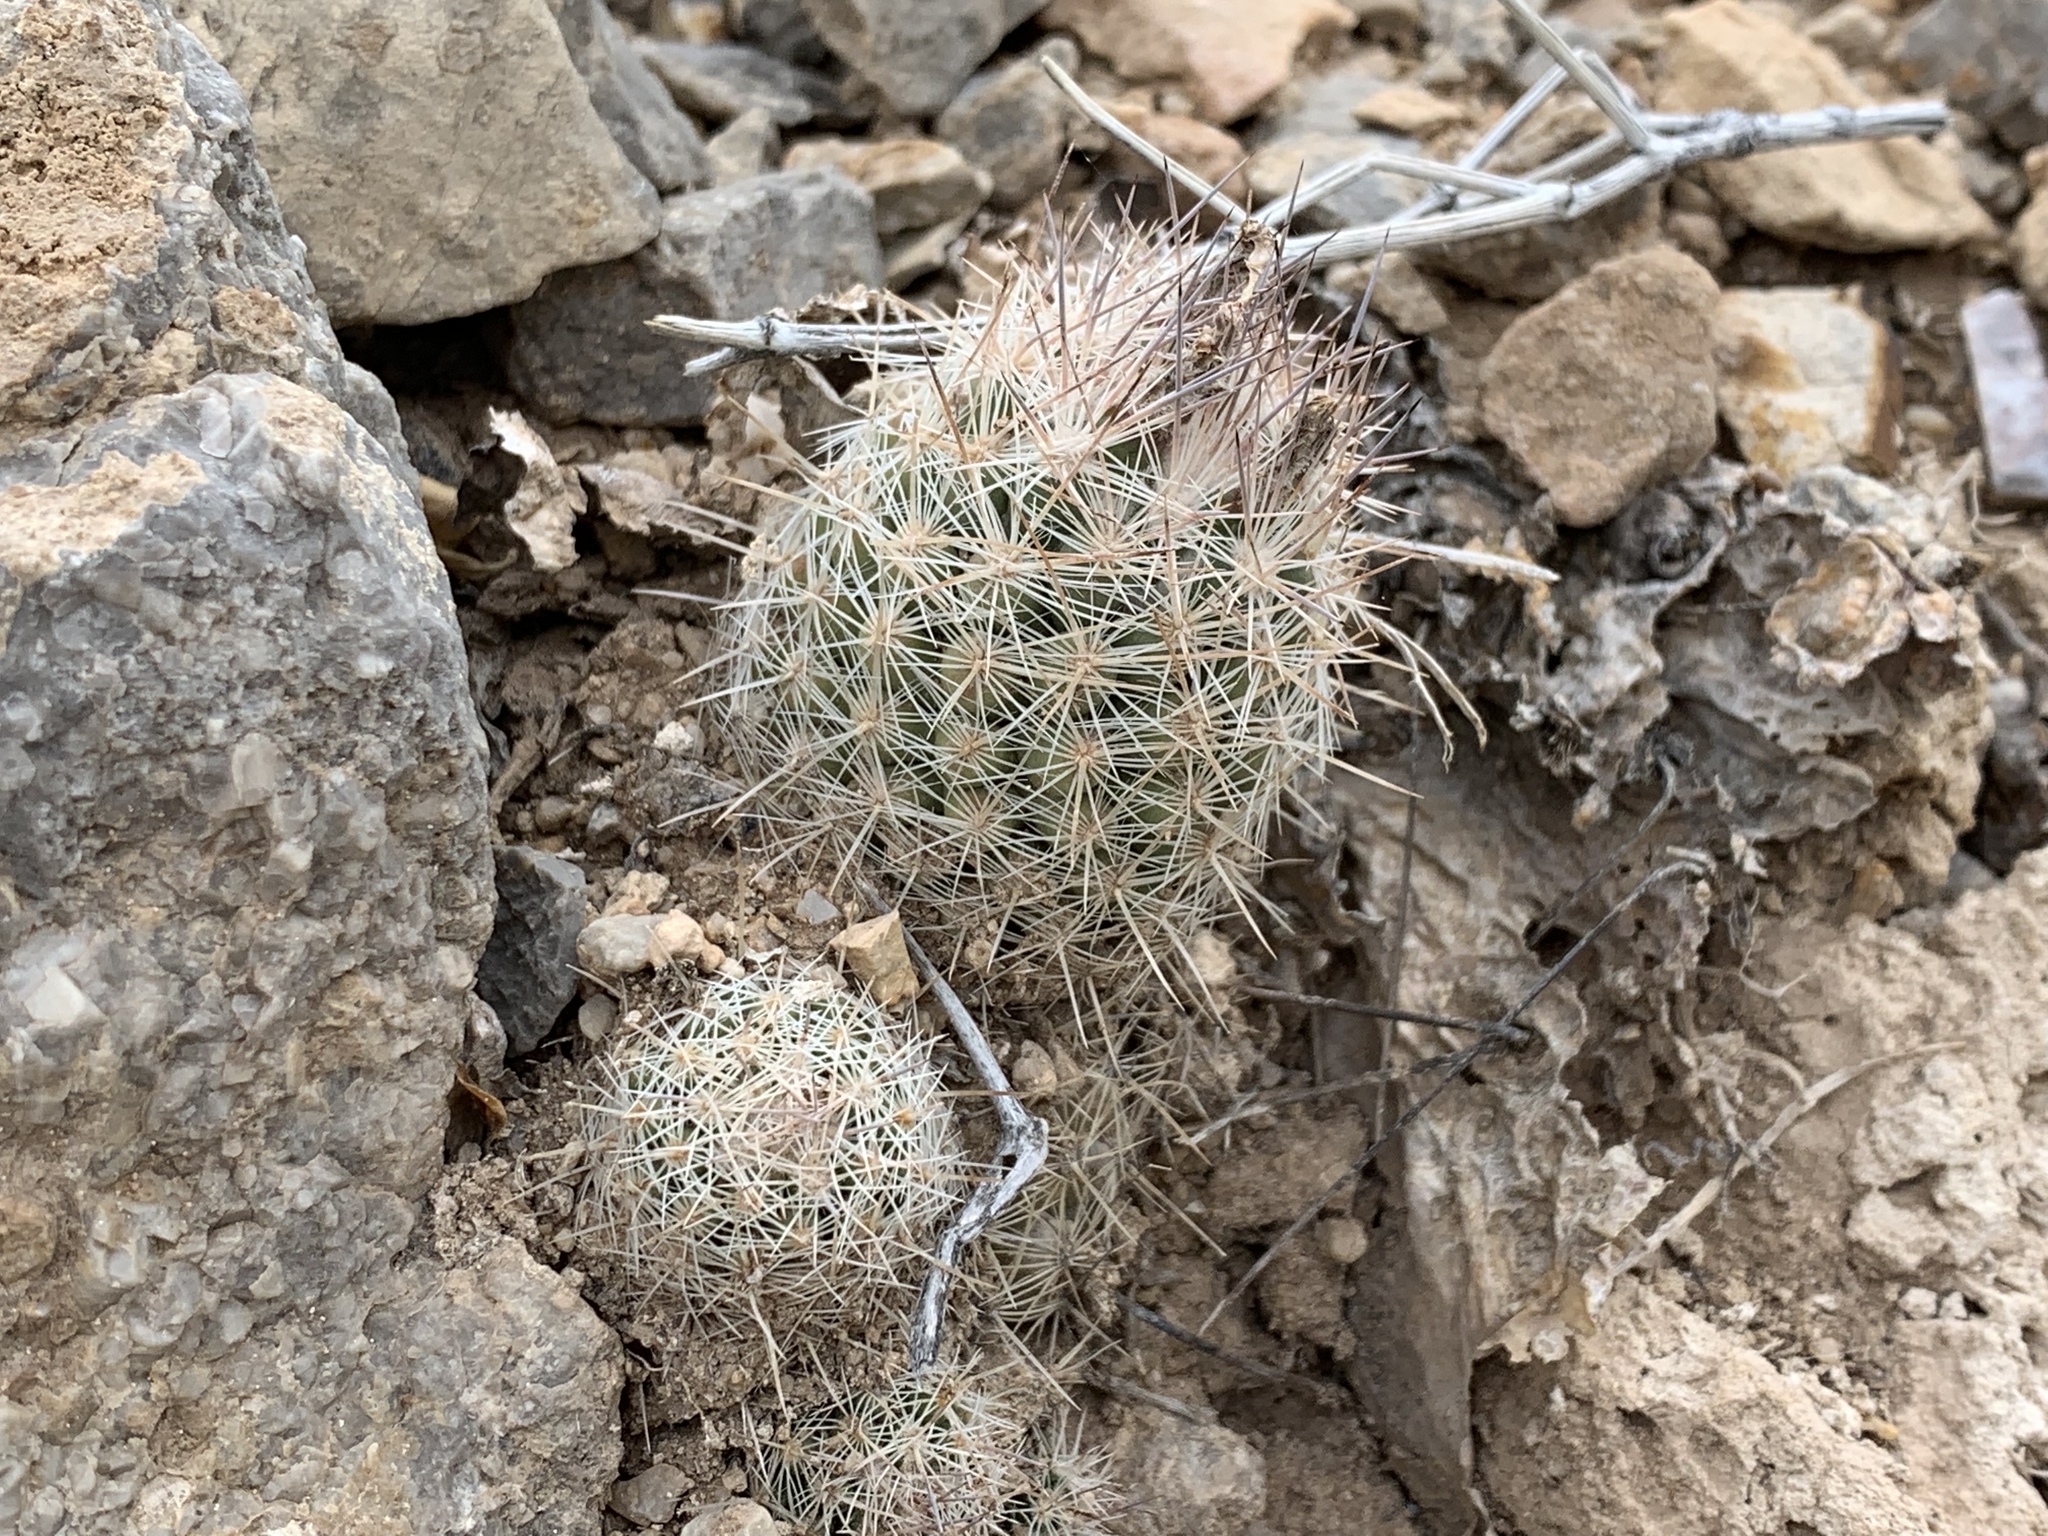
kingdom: Plantae
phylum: Tracheophyta
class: Magnoliopsida
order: Caryophyllales
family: Cactaceae
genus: Pelecyphora
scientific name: Pelecyphora tuberculosa
